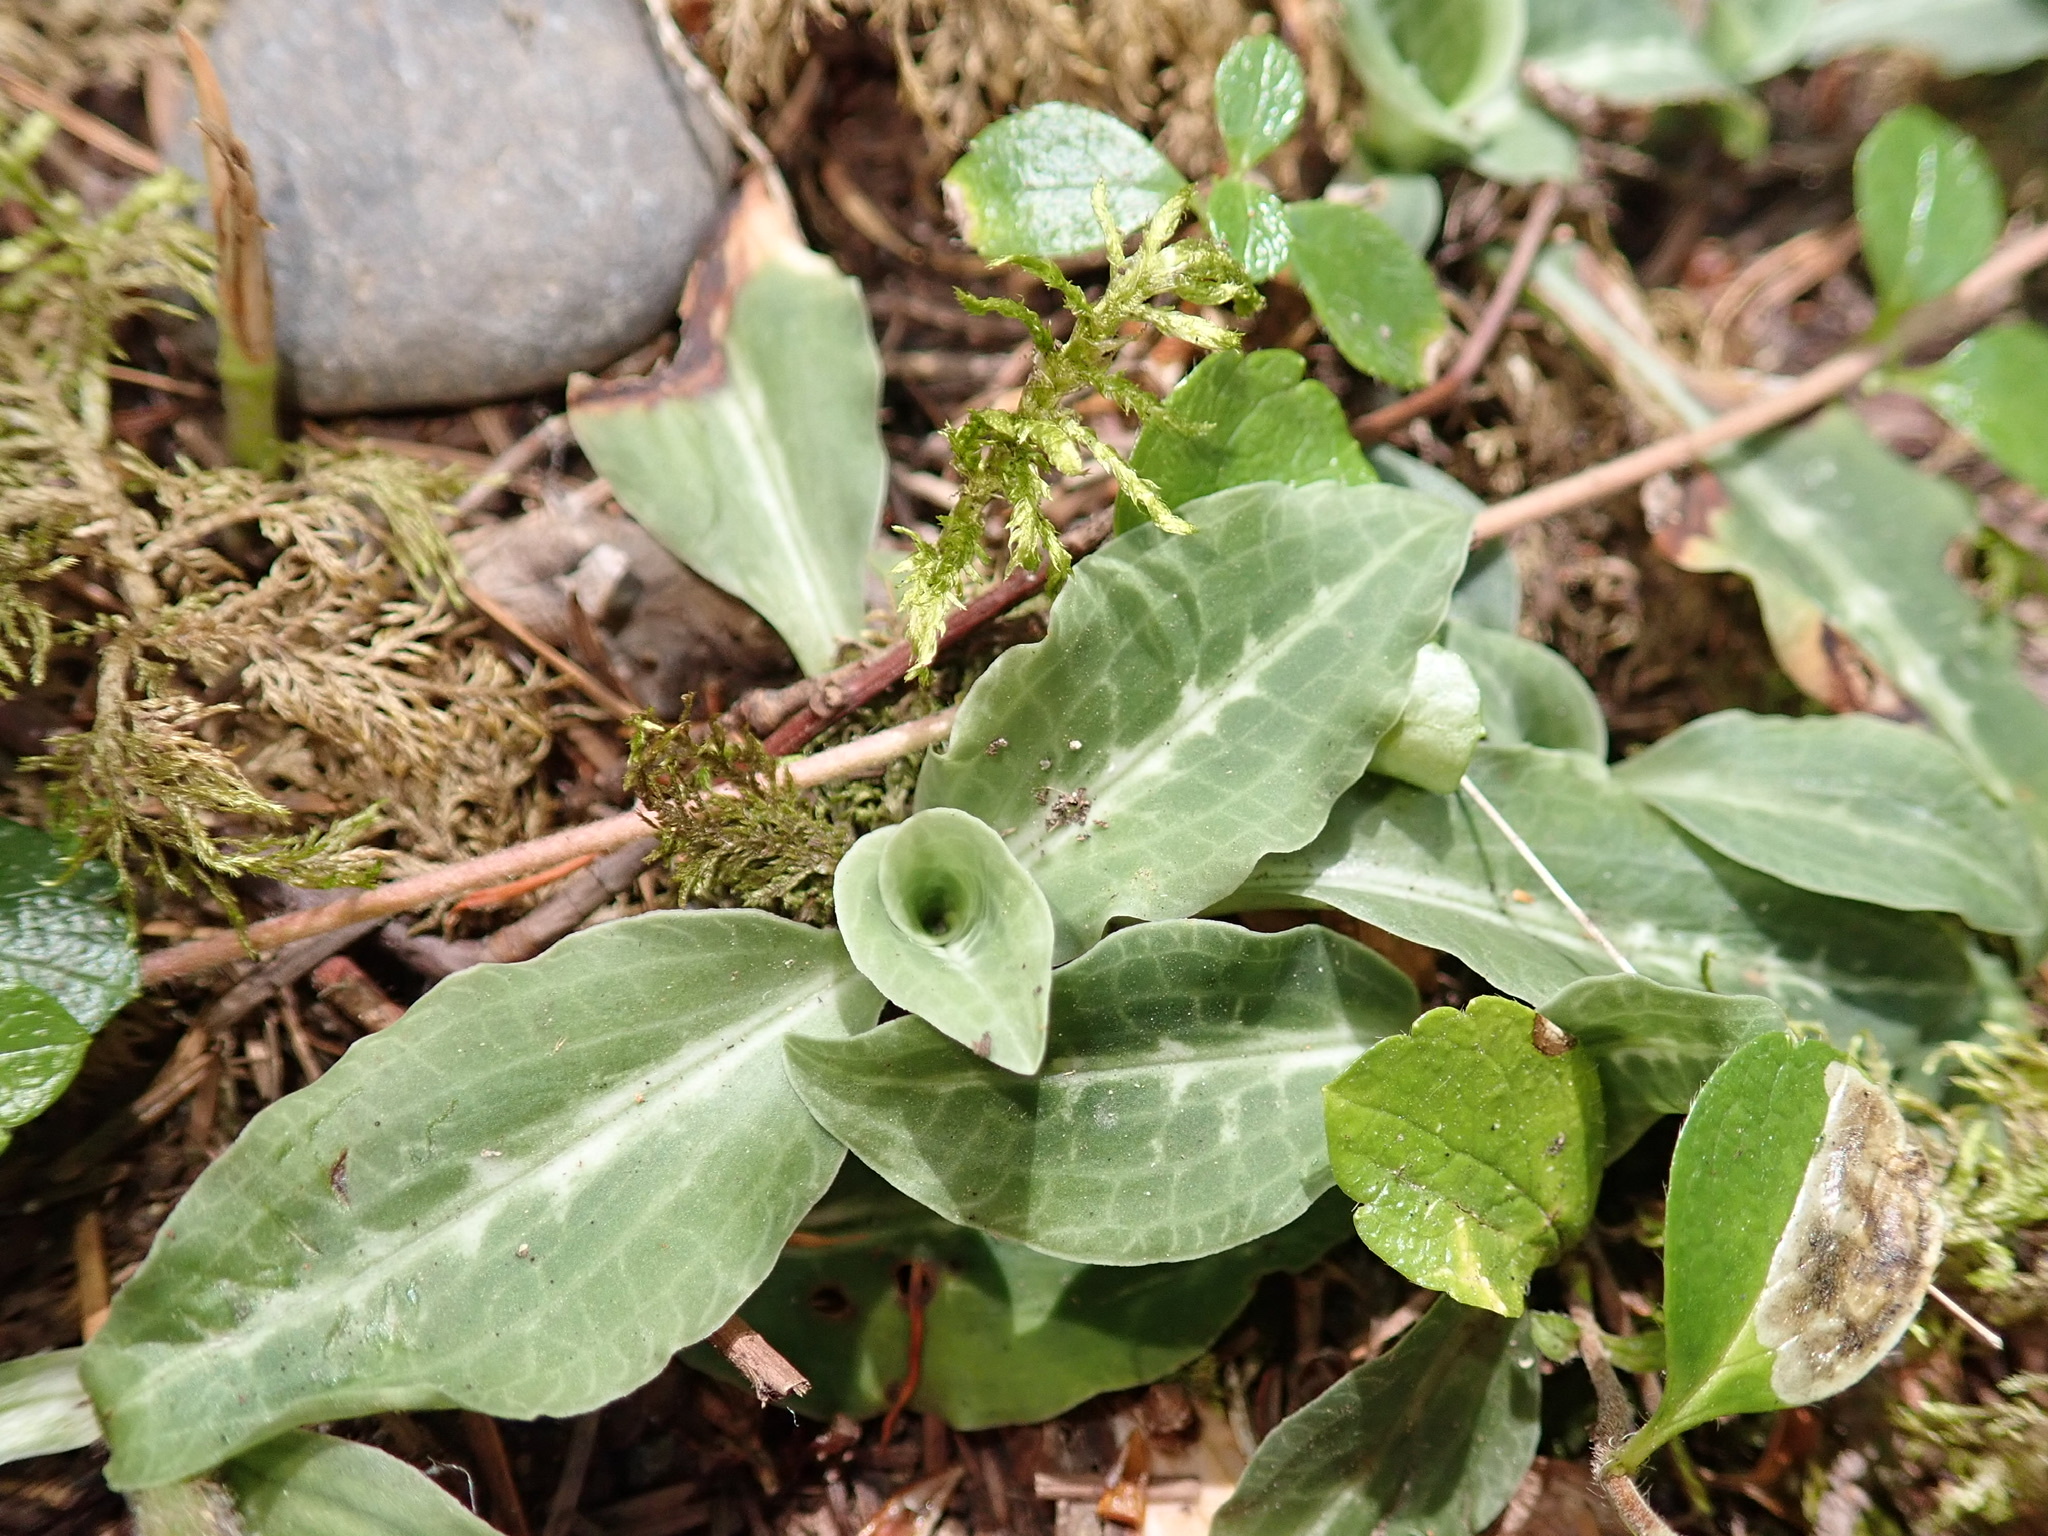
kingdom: Plantae
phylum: Tracheophyta
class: Liliopsida
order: Asparagales
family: Orchidaceae
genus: Goodyera
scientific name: Goodyera oblongifolia
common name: Giant rattlesnake-plantain
